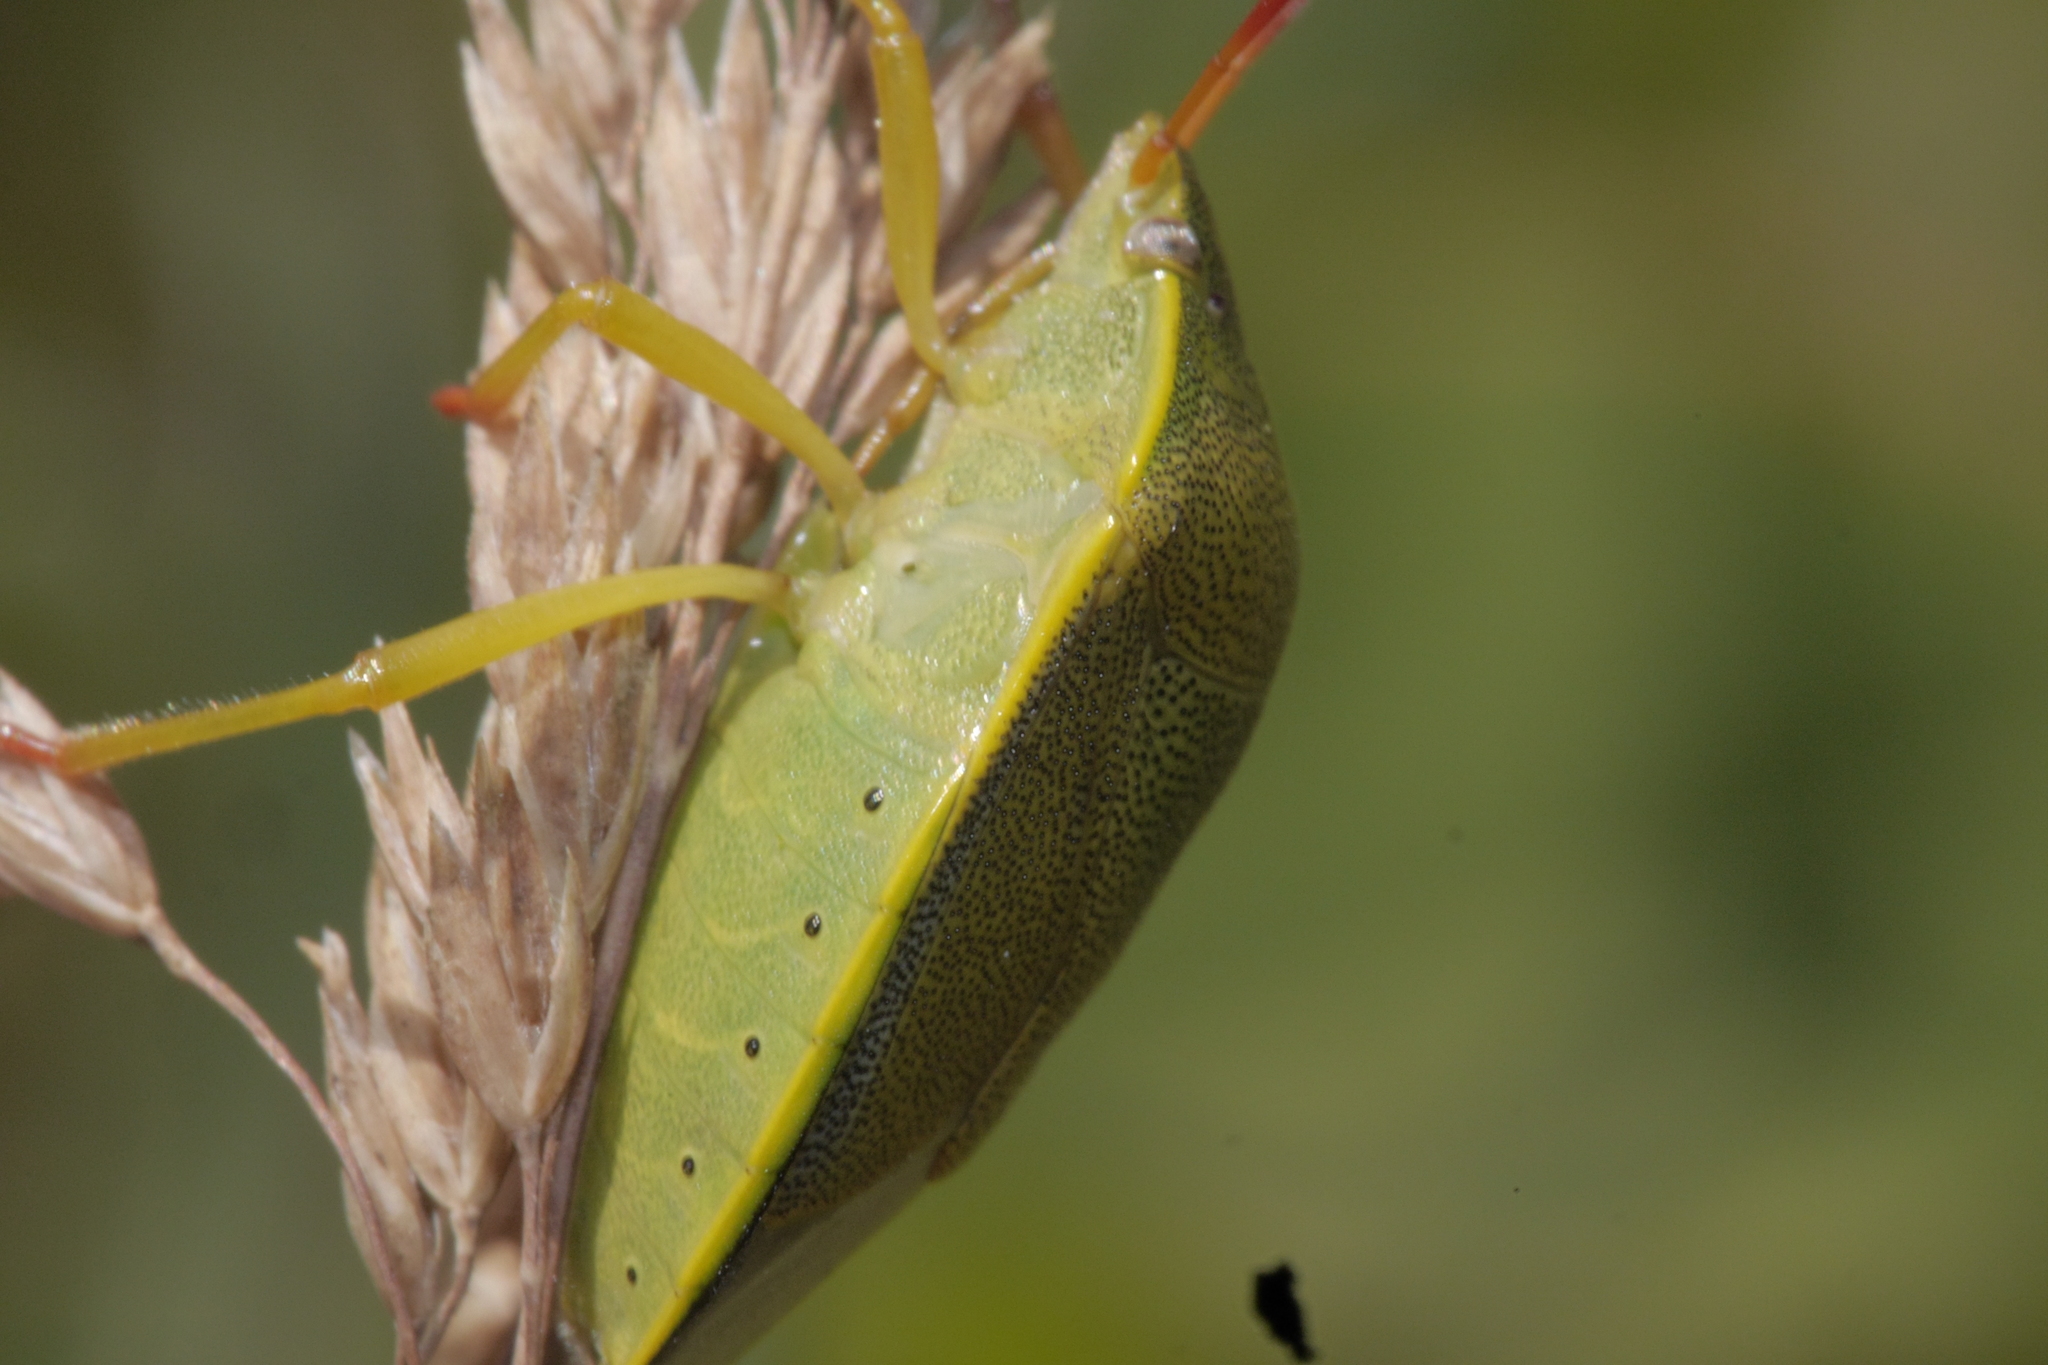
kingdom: Animalia
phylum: Arthropoda
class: Insecta
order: Hemiptera
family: Pentatomidae
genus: Piezodorus
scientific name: Piezodorus lituratus
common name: Stink bug
